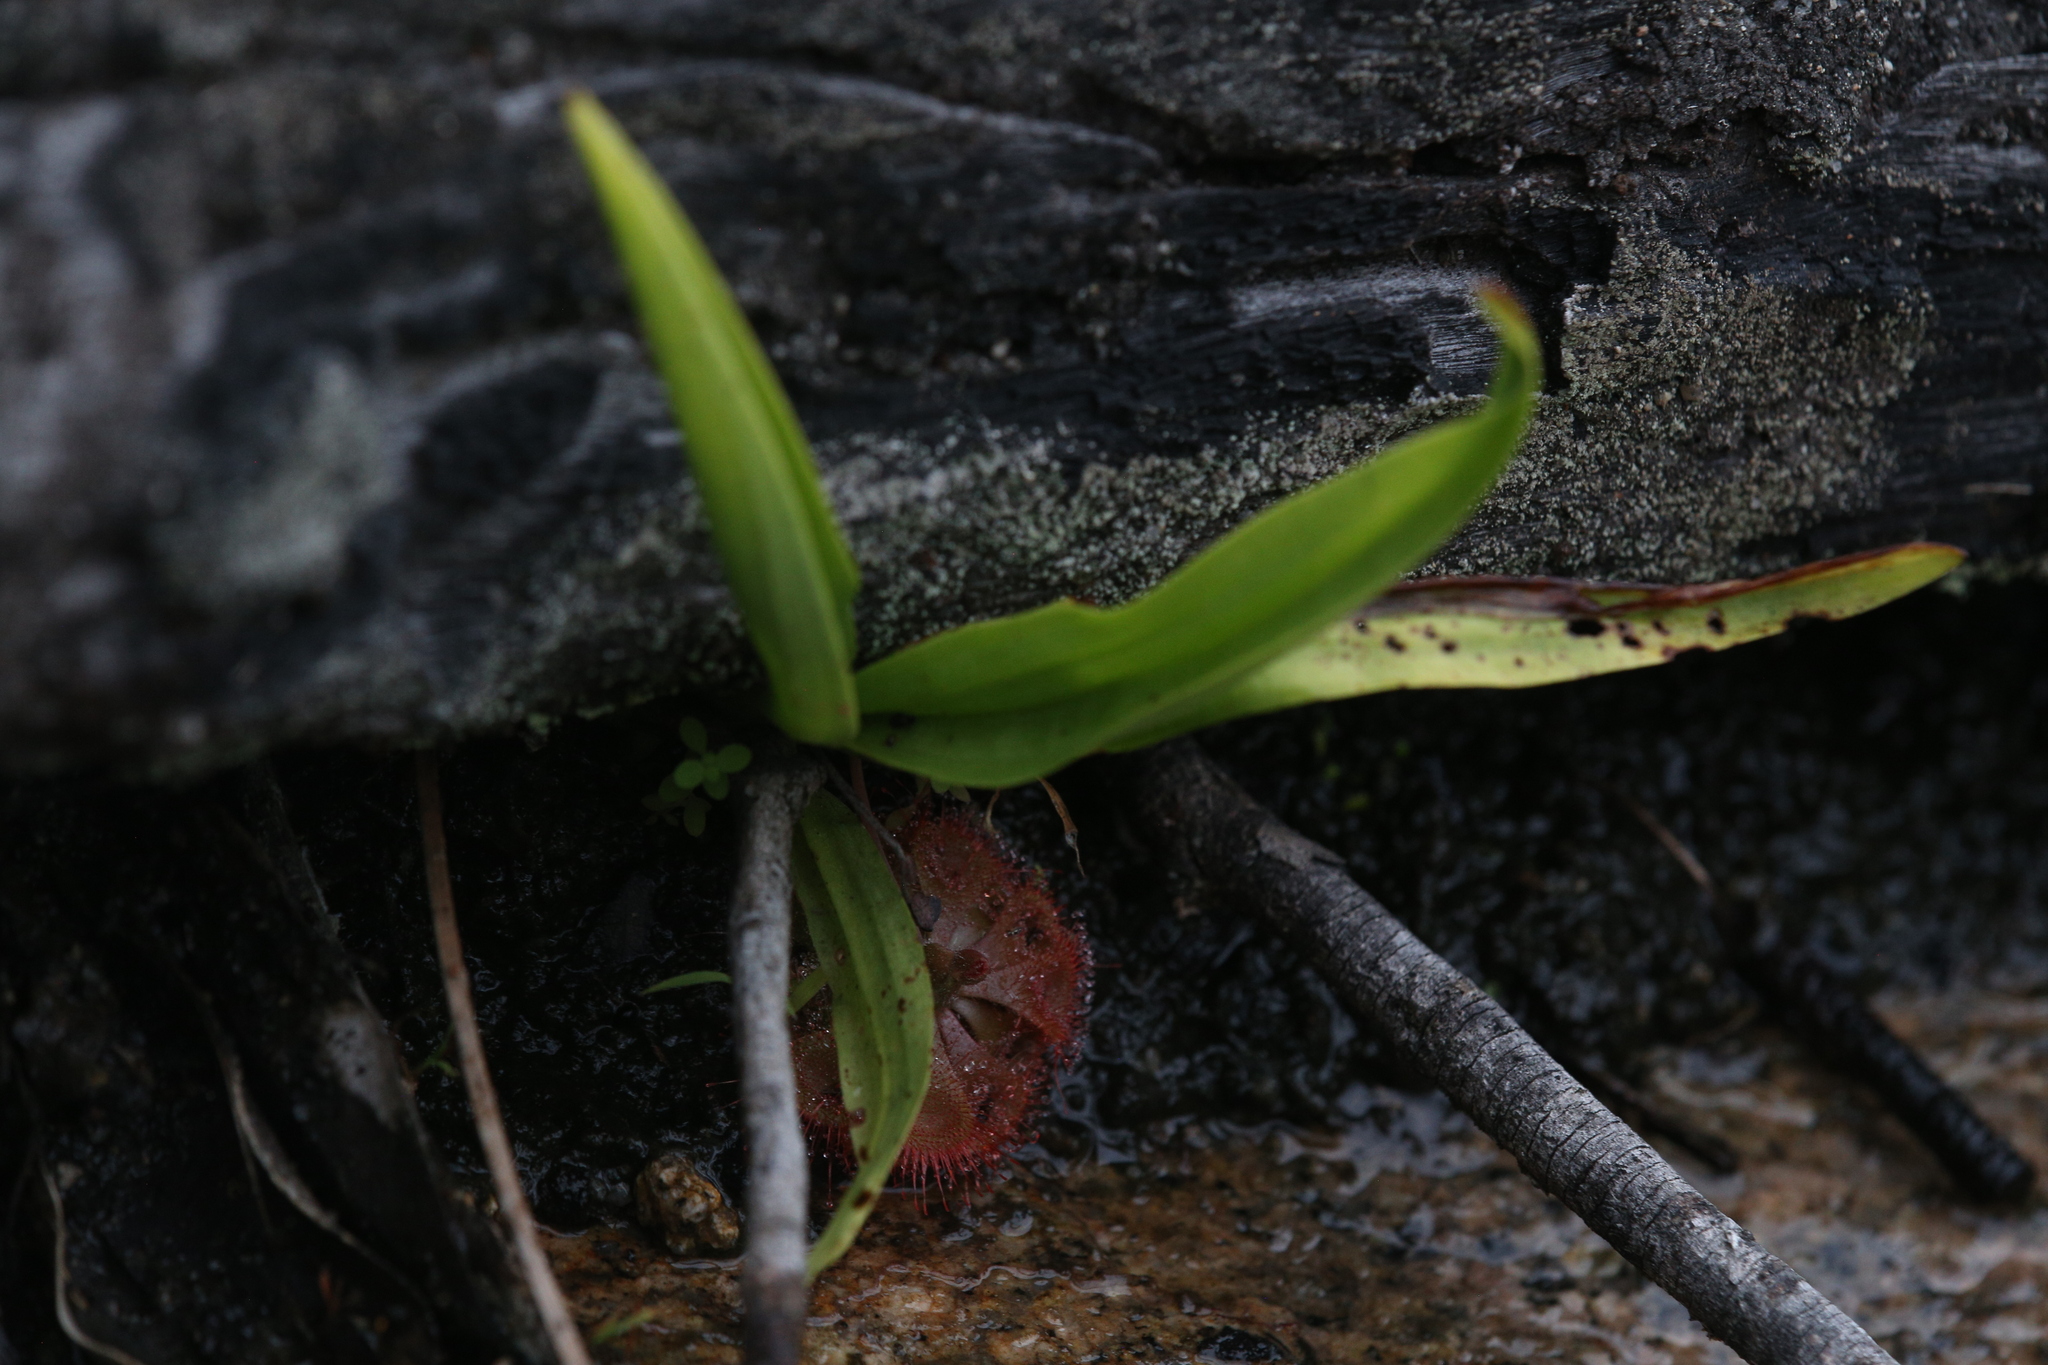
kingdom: Plantae
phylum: Tracheophyta
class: Magnoliopsida
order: Caryophyllales
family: Droseraceae
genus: Drosera
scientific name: Drosera spatulata
